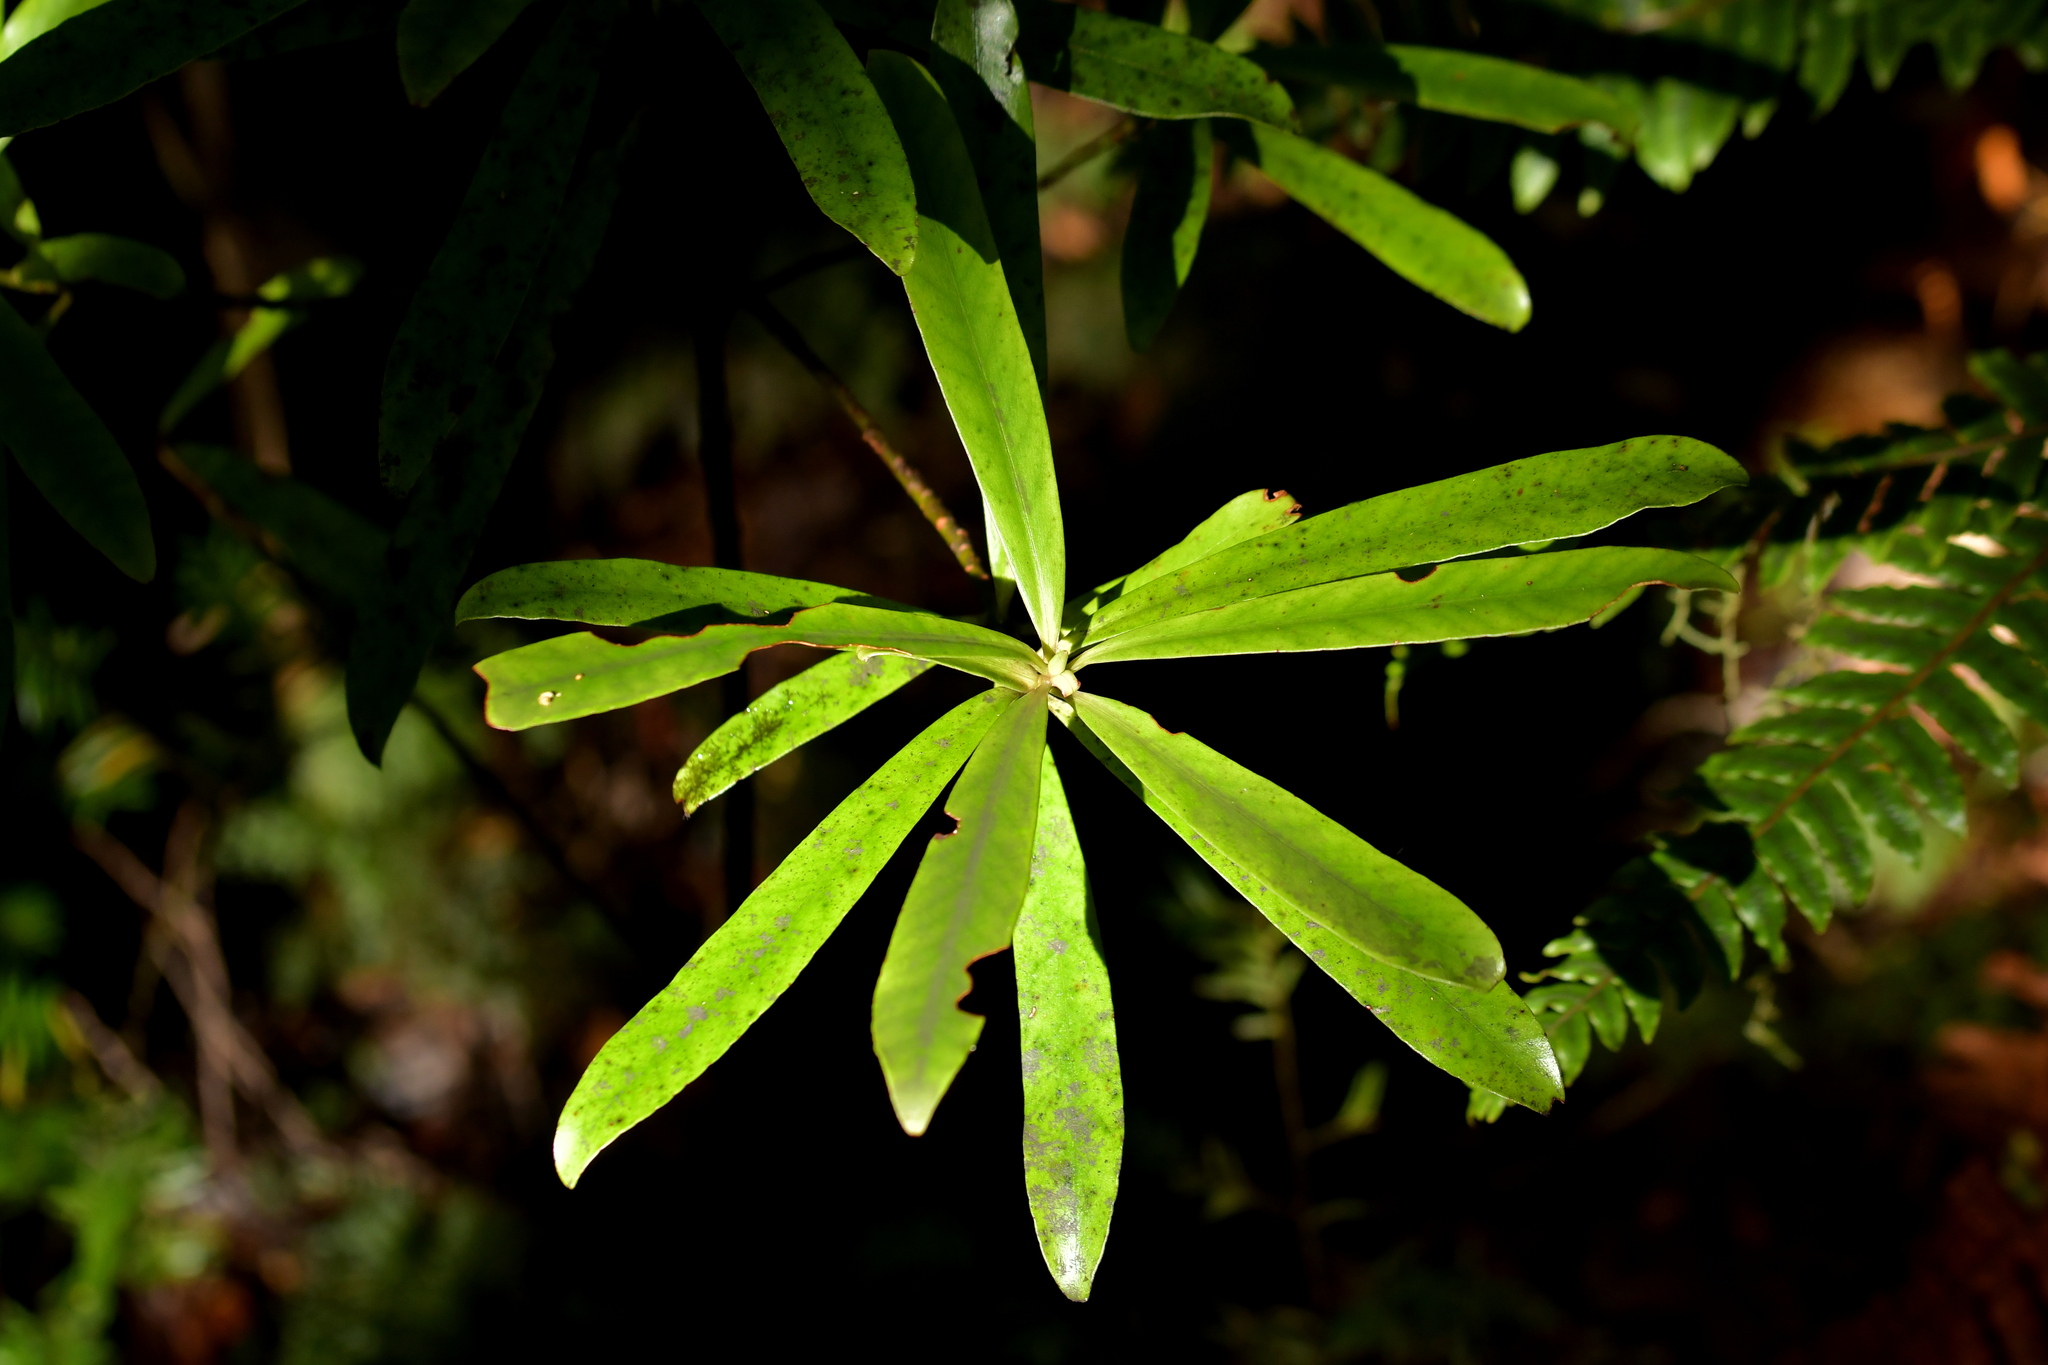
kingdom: Plantae
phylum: Tracheophyta
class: Magnoliopsida
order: Ericales
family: Primulaceae
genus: Myrsine
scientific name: Myrsine salicina
